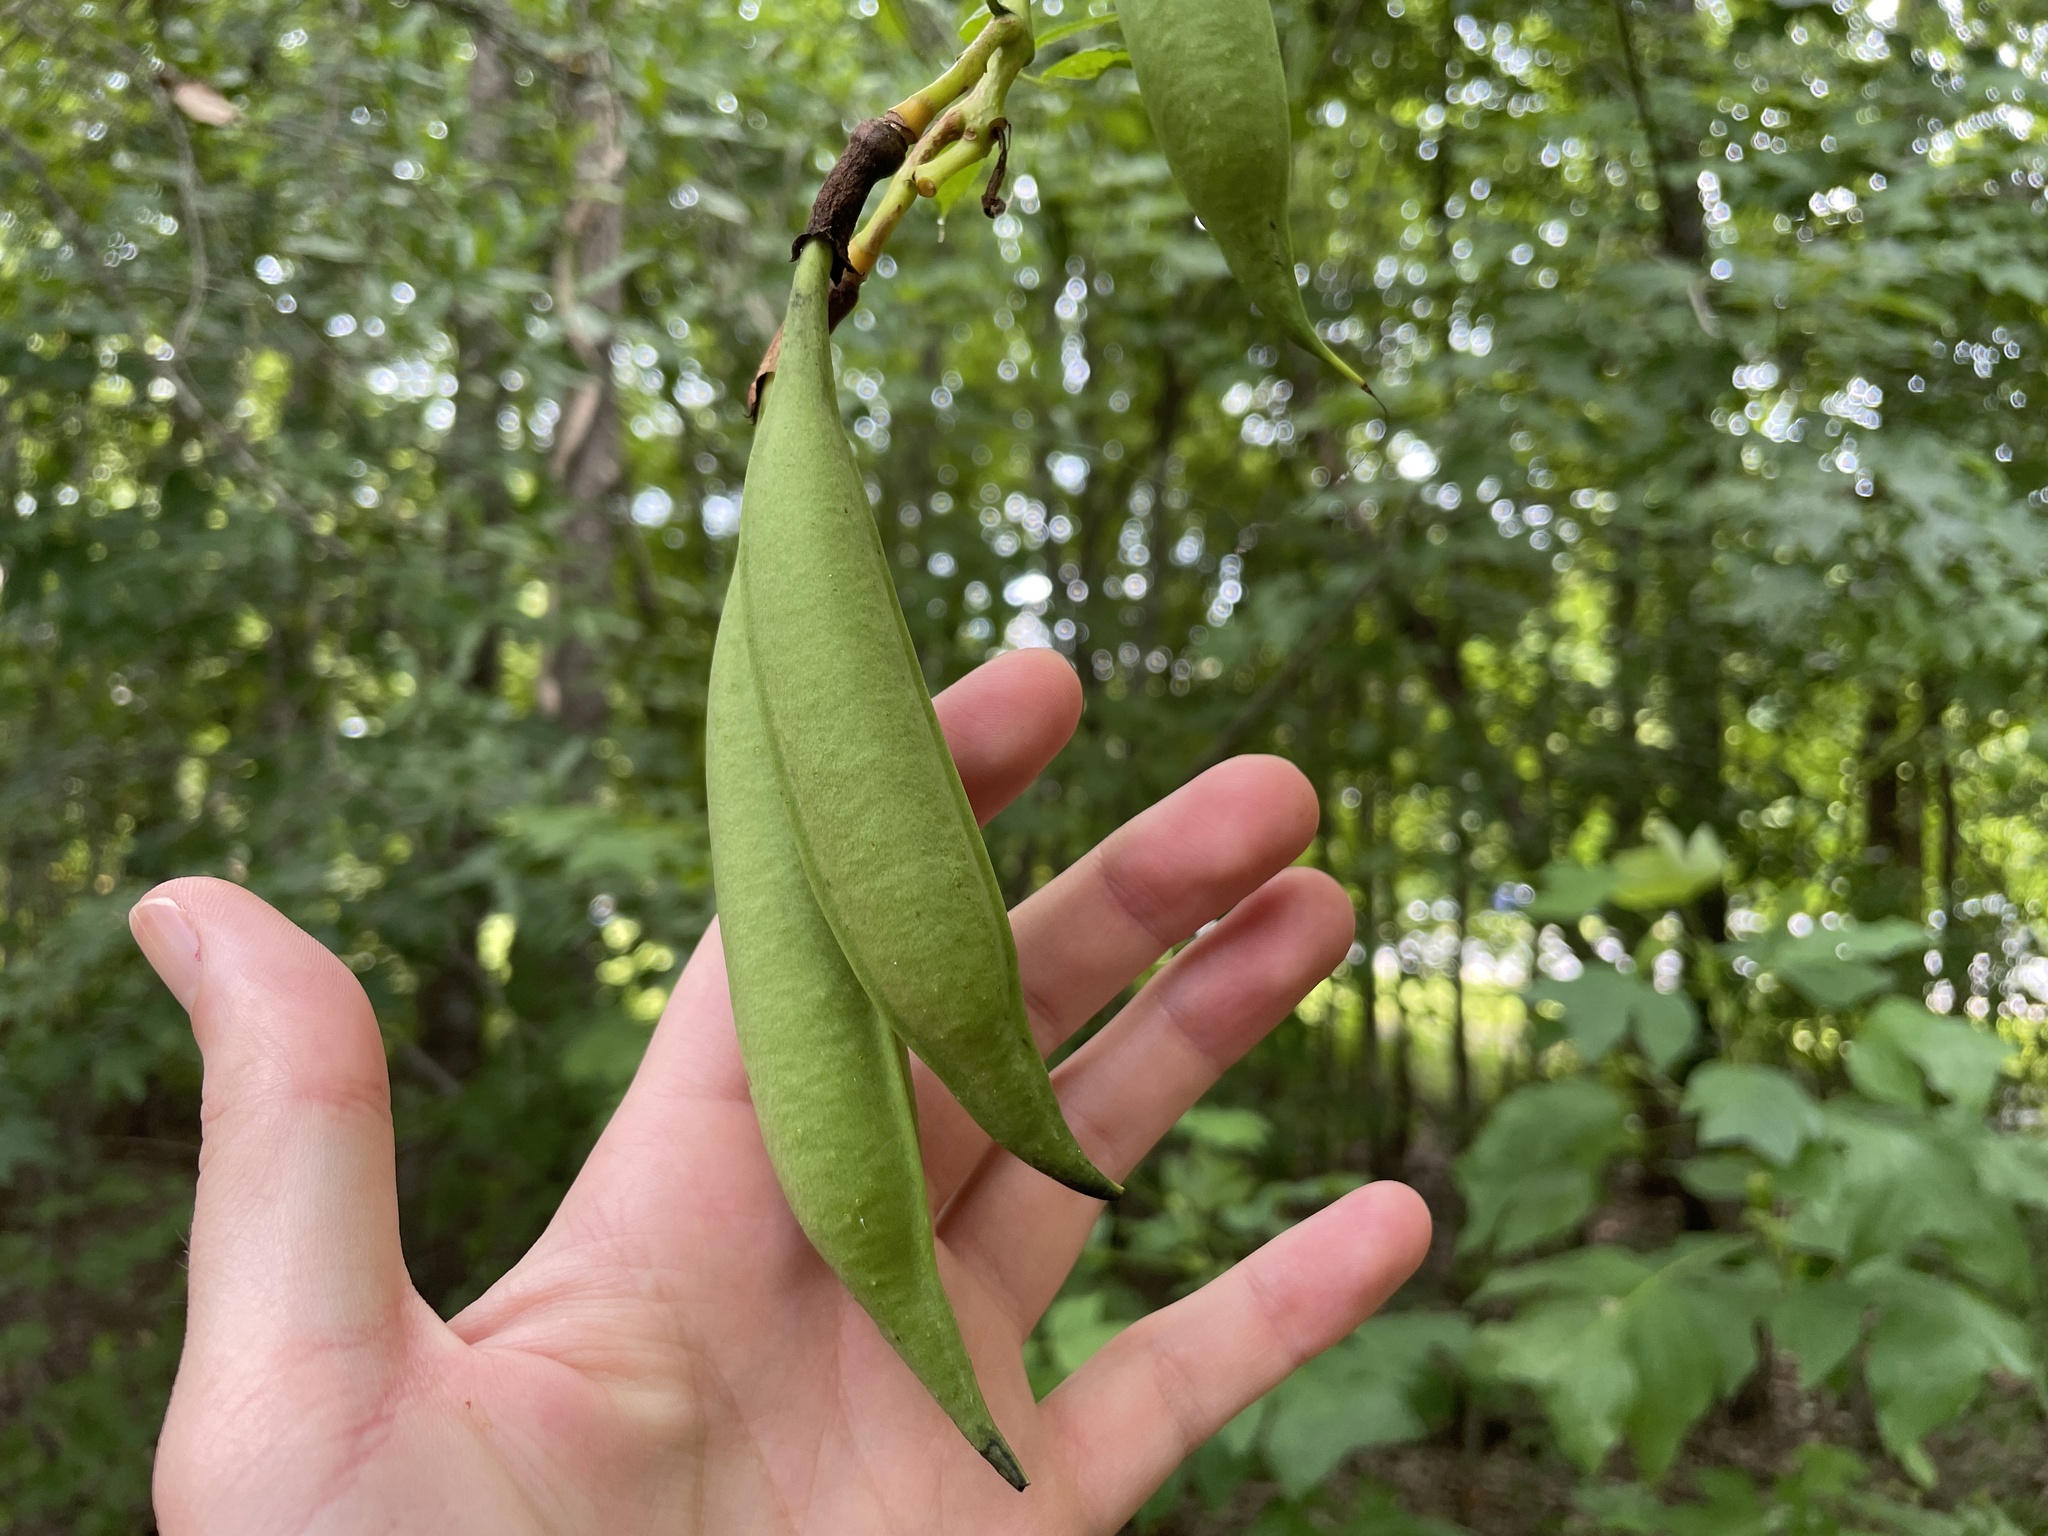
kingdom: Plantae
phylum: Tracheophyta
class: Magnoliopsida
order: Lamiales
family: Bignoniaceae
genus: Campsis
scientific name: Campsis radicans
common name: Trumpet-creeper
